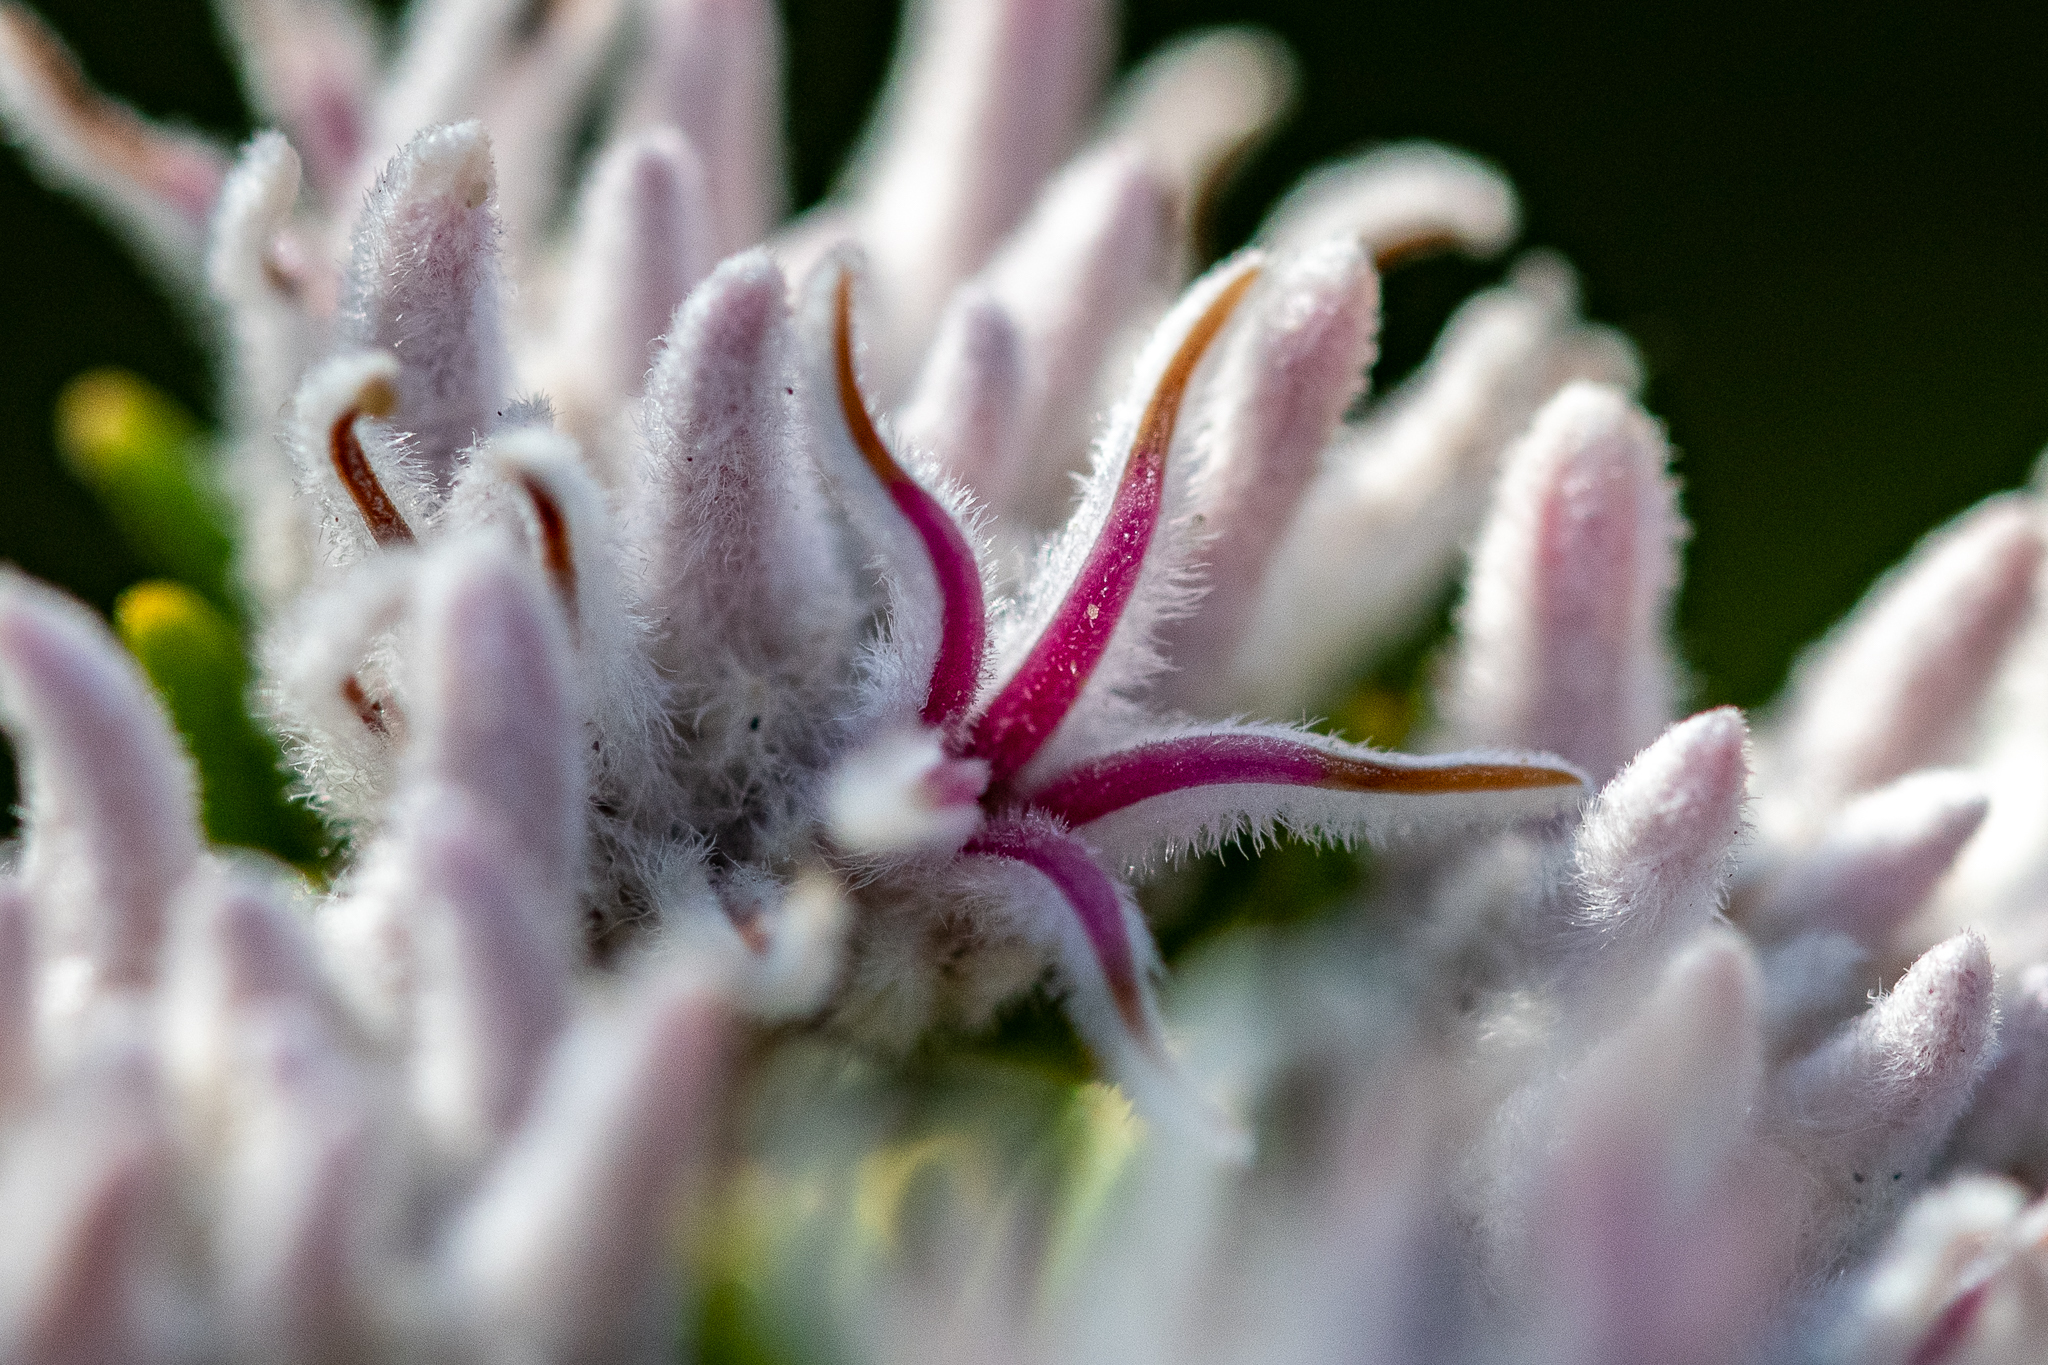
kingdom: Plantae
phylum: Tracheophyta
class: Magnoliopsida
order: Rosales
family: Rhamnaceae
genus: Trichocephalus
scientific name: Trichocephalus stipularis
